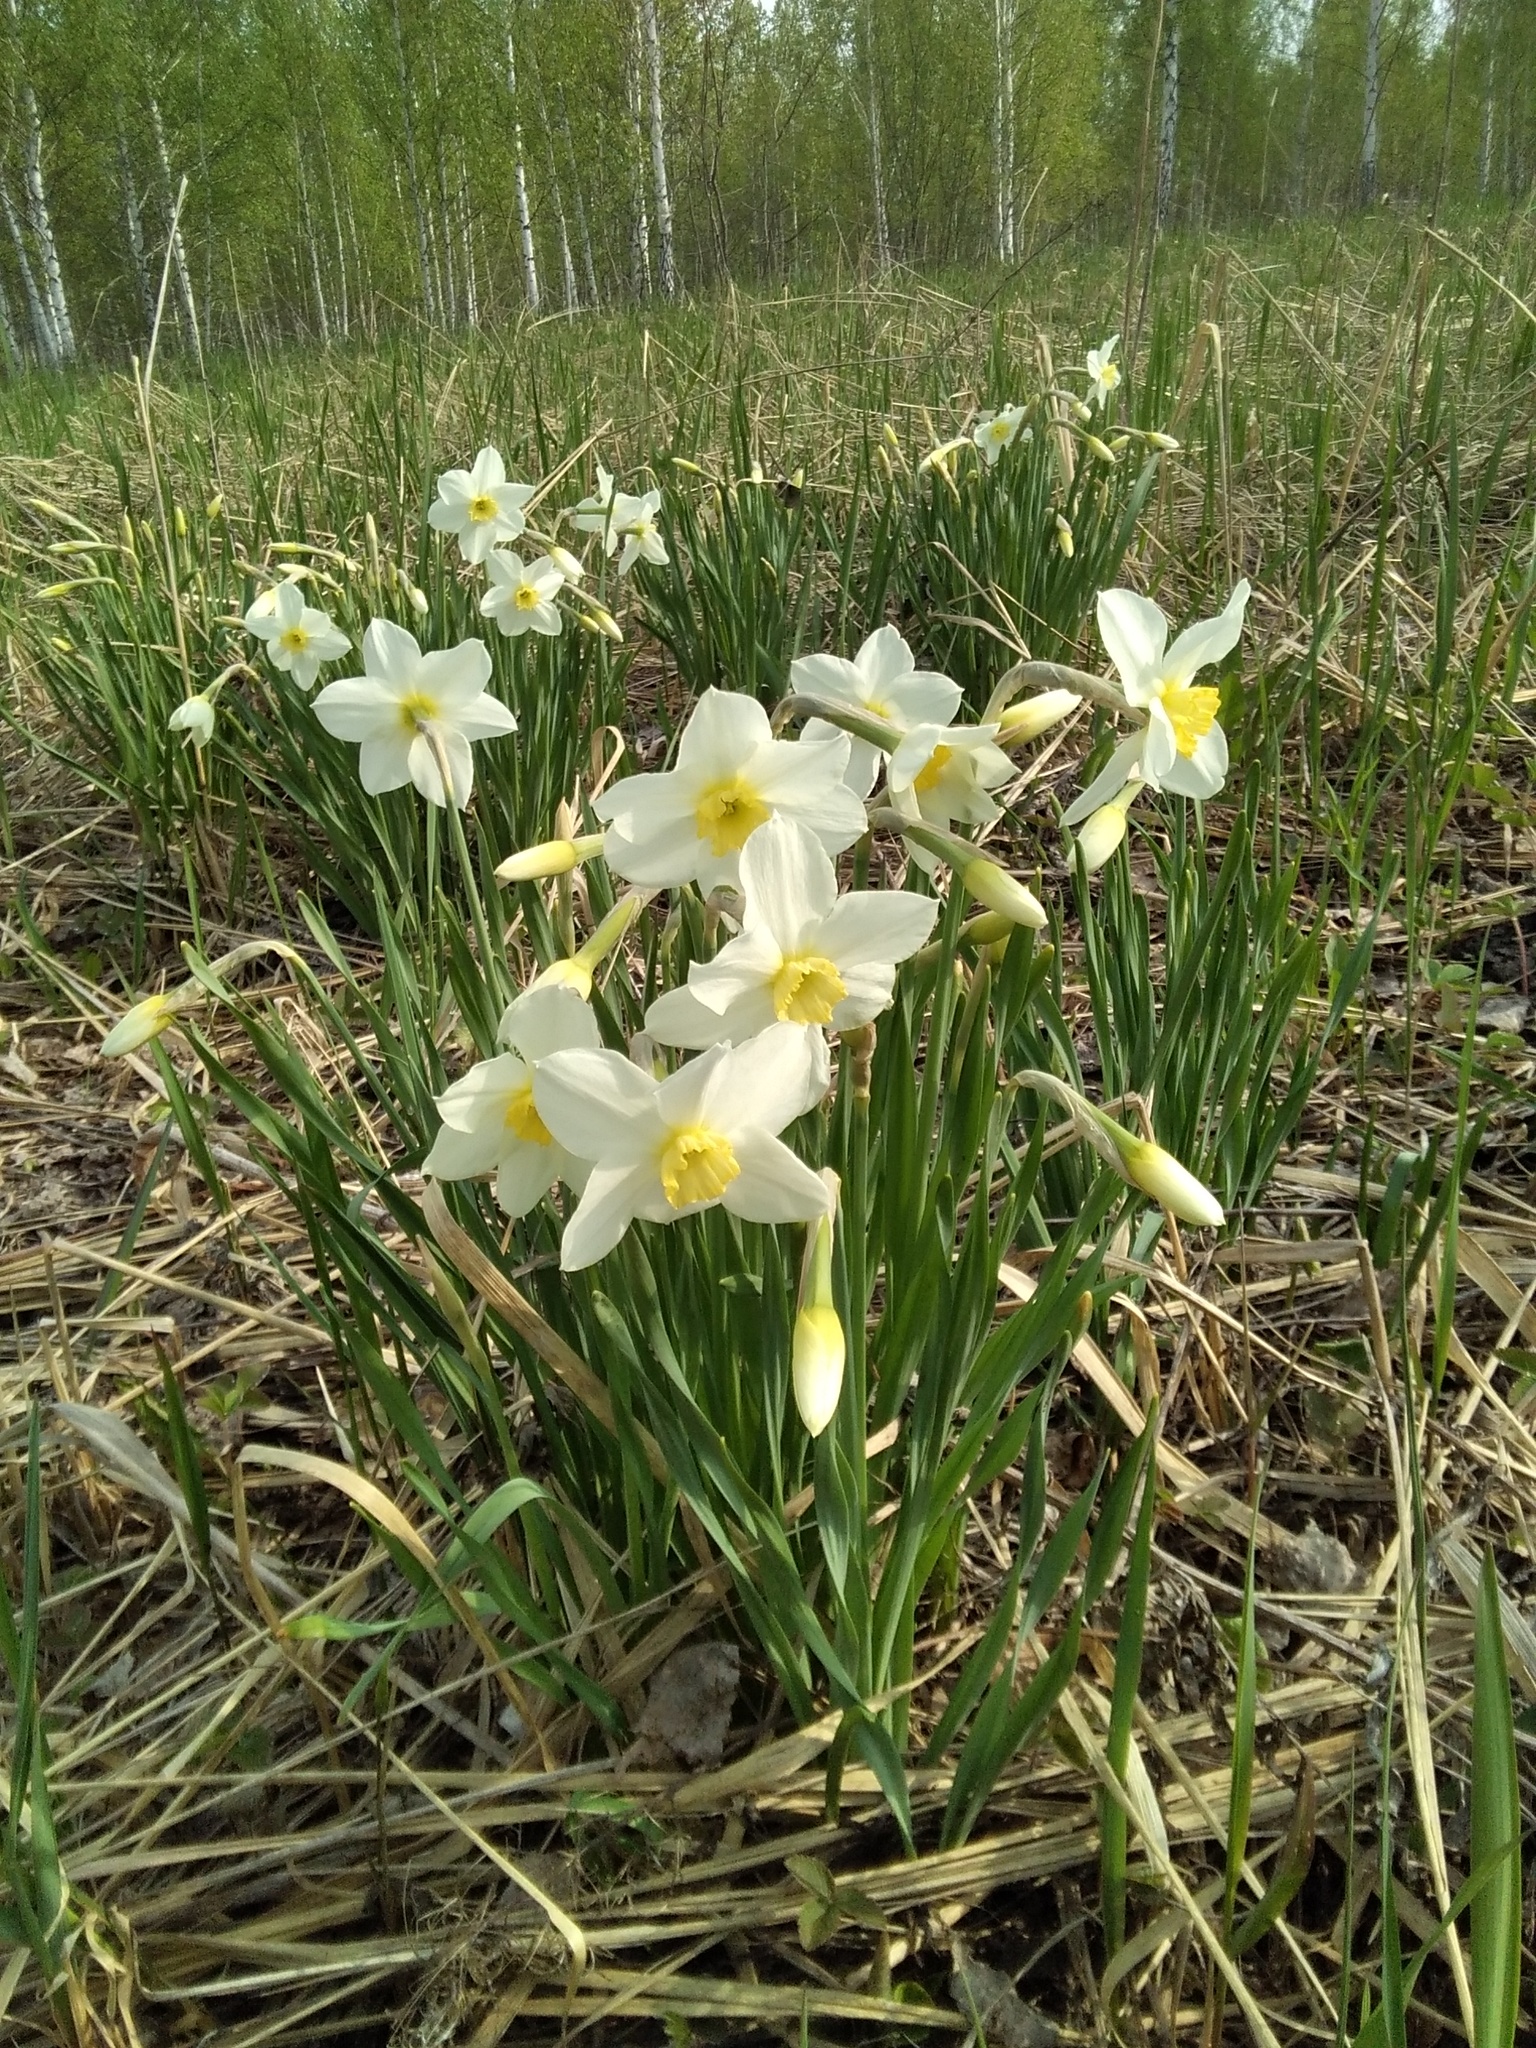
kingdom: Plantae
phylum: Tracheophyta
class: Liliopsida
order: Asparagales
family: Amaryllidaceae
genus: Narcissus
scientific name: Narcissus incomparabilis
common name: Nonesuch daffodil
